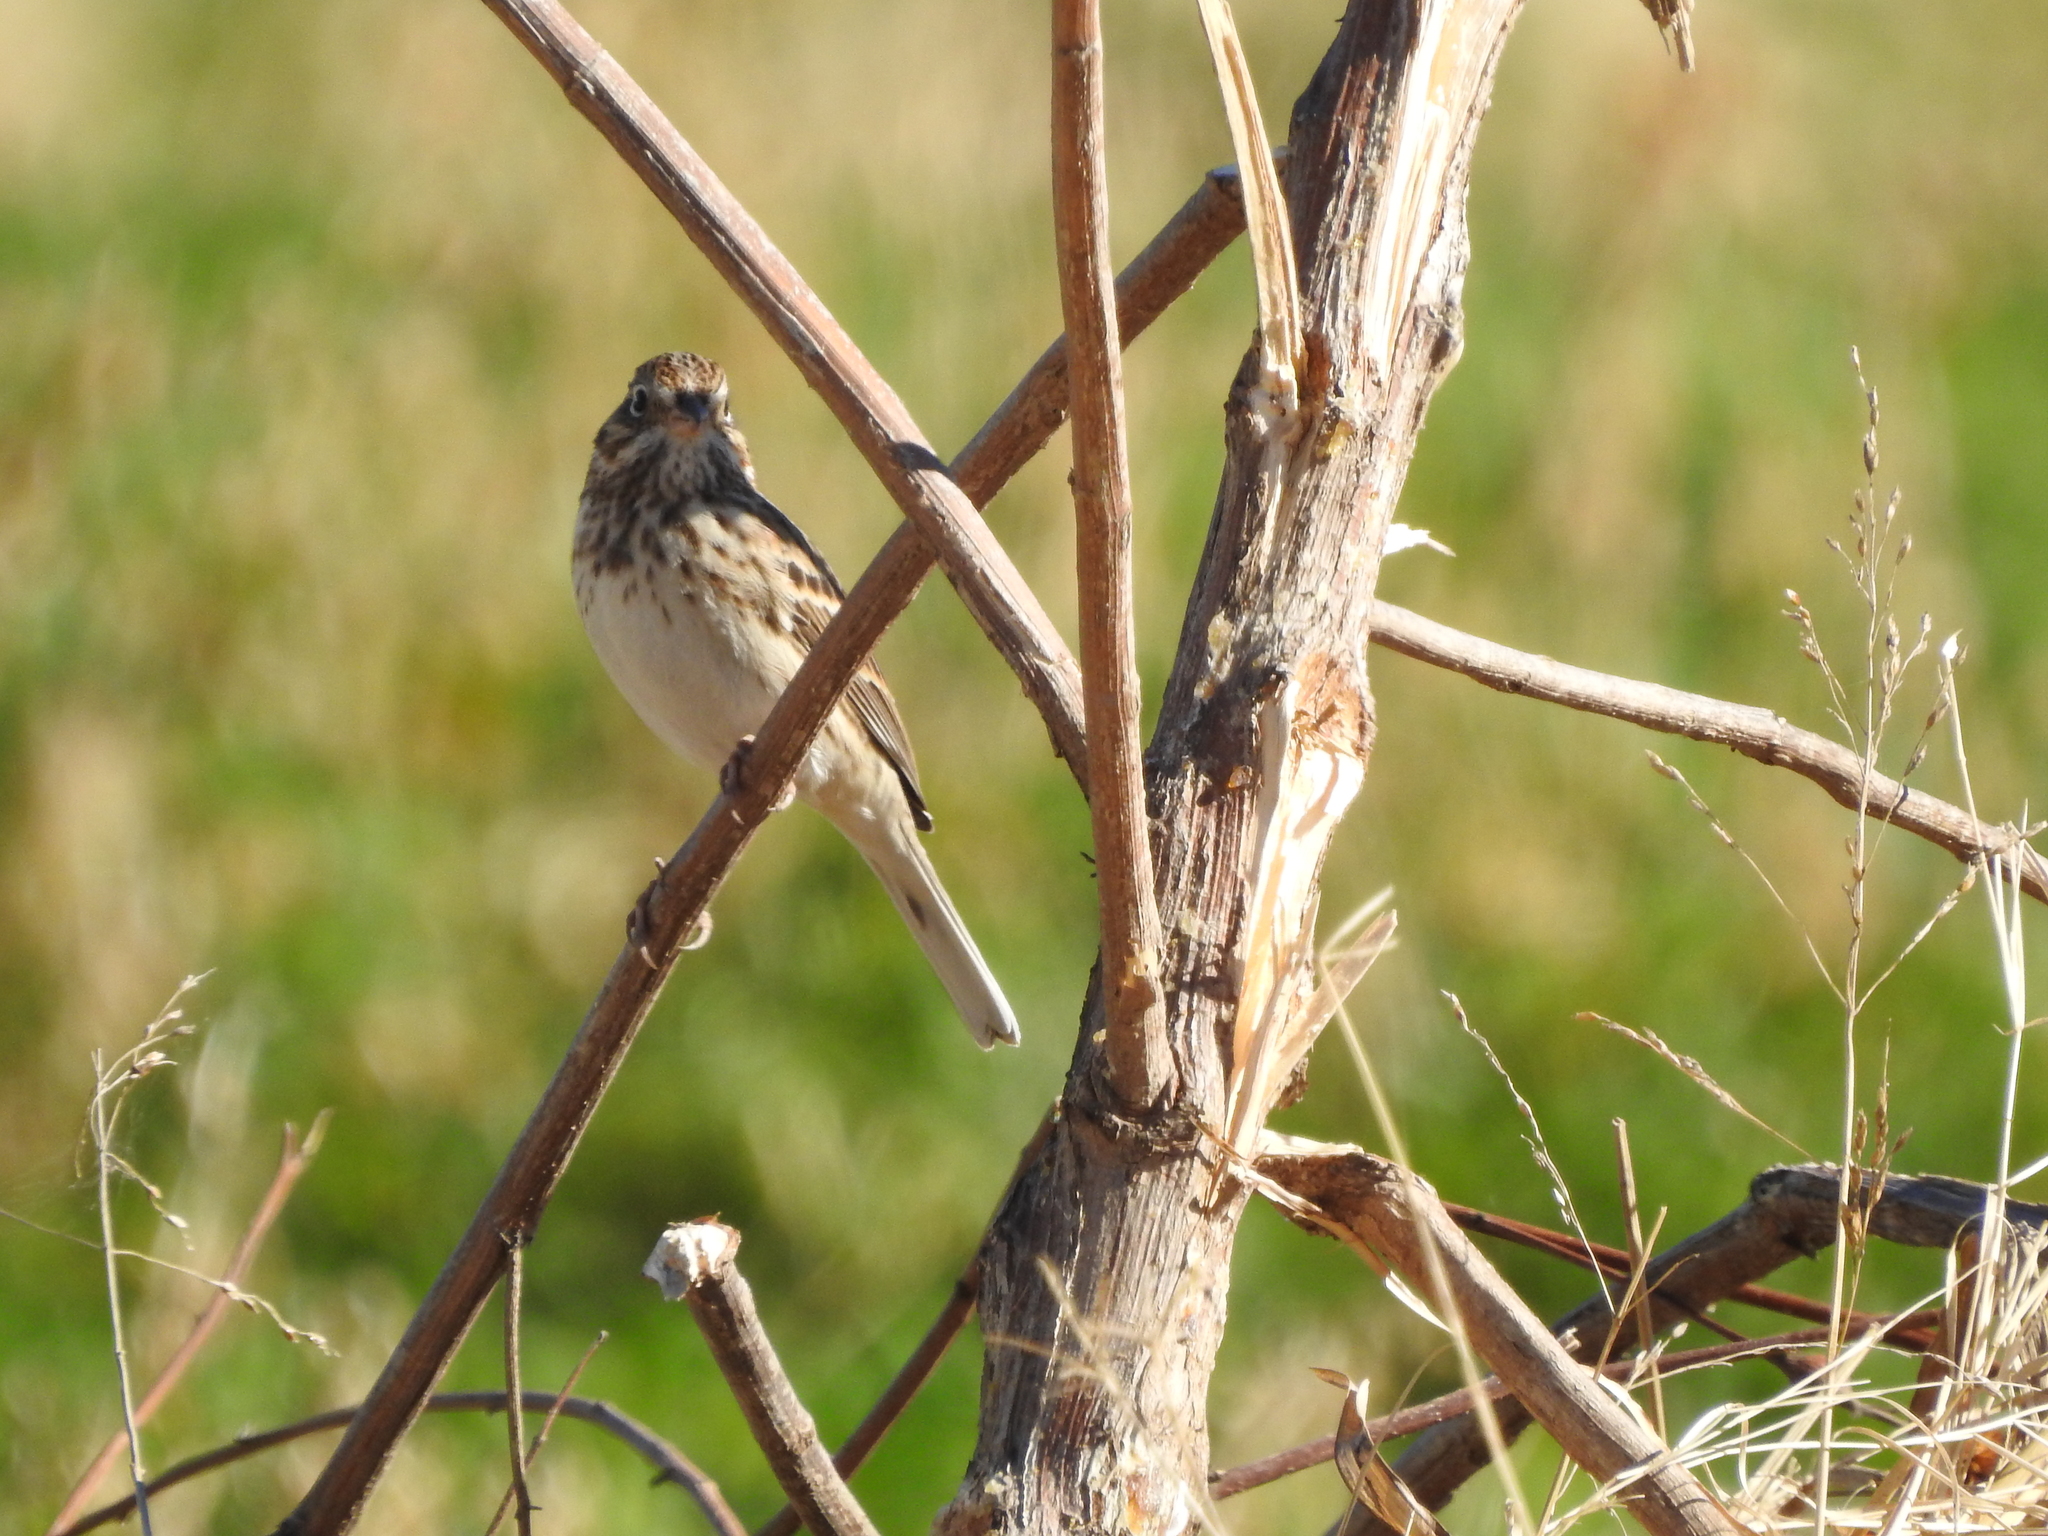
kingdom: Animalia
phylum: Chordata
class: Aves
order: Passeriformes
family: Passerellidae
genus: Pooecetes
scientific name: Pooecetes gramineus
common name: Vesper sparrow
